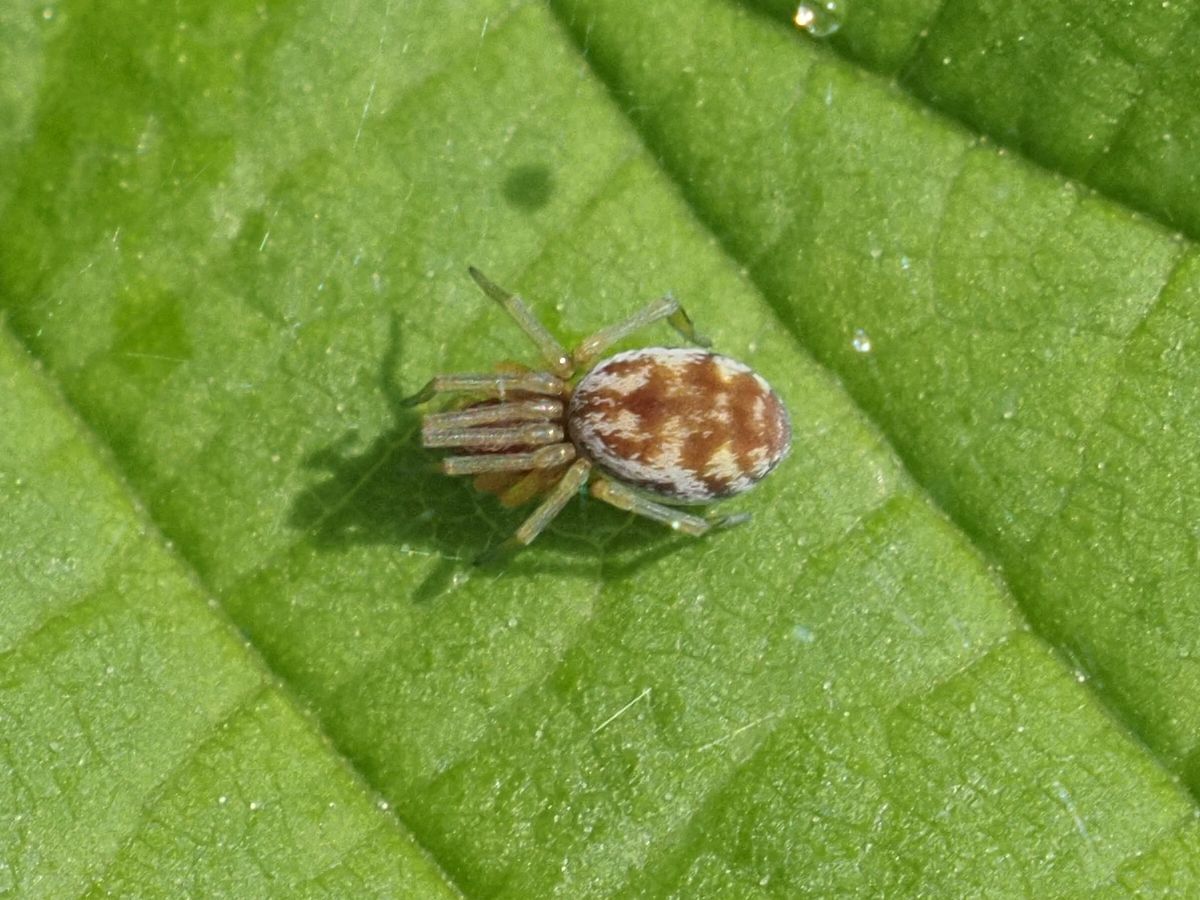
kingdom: Animalia
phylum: Arthropoda
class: Arachnida
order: Araneae
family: Dictynidae
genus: Nigma
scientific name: Nigma flavescens
